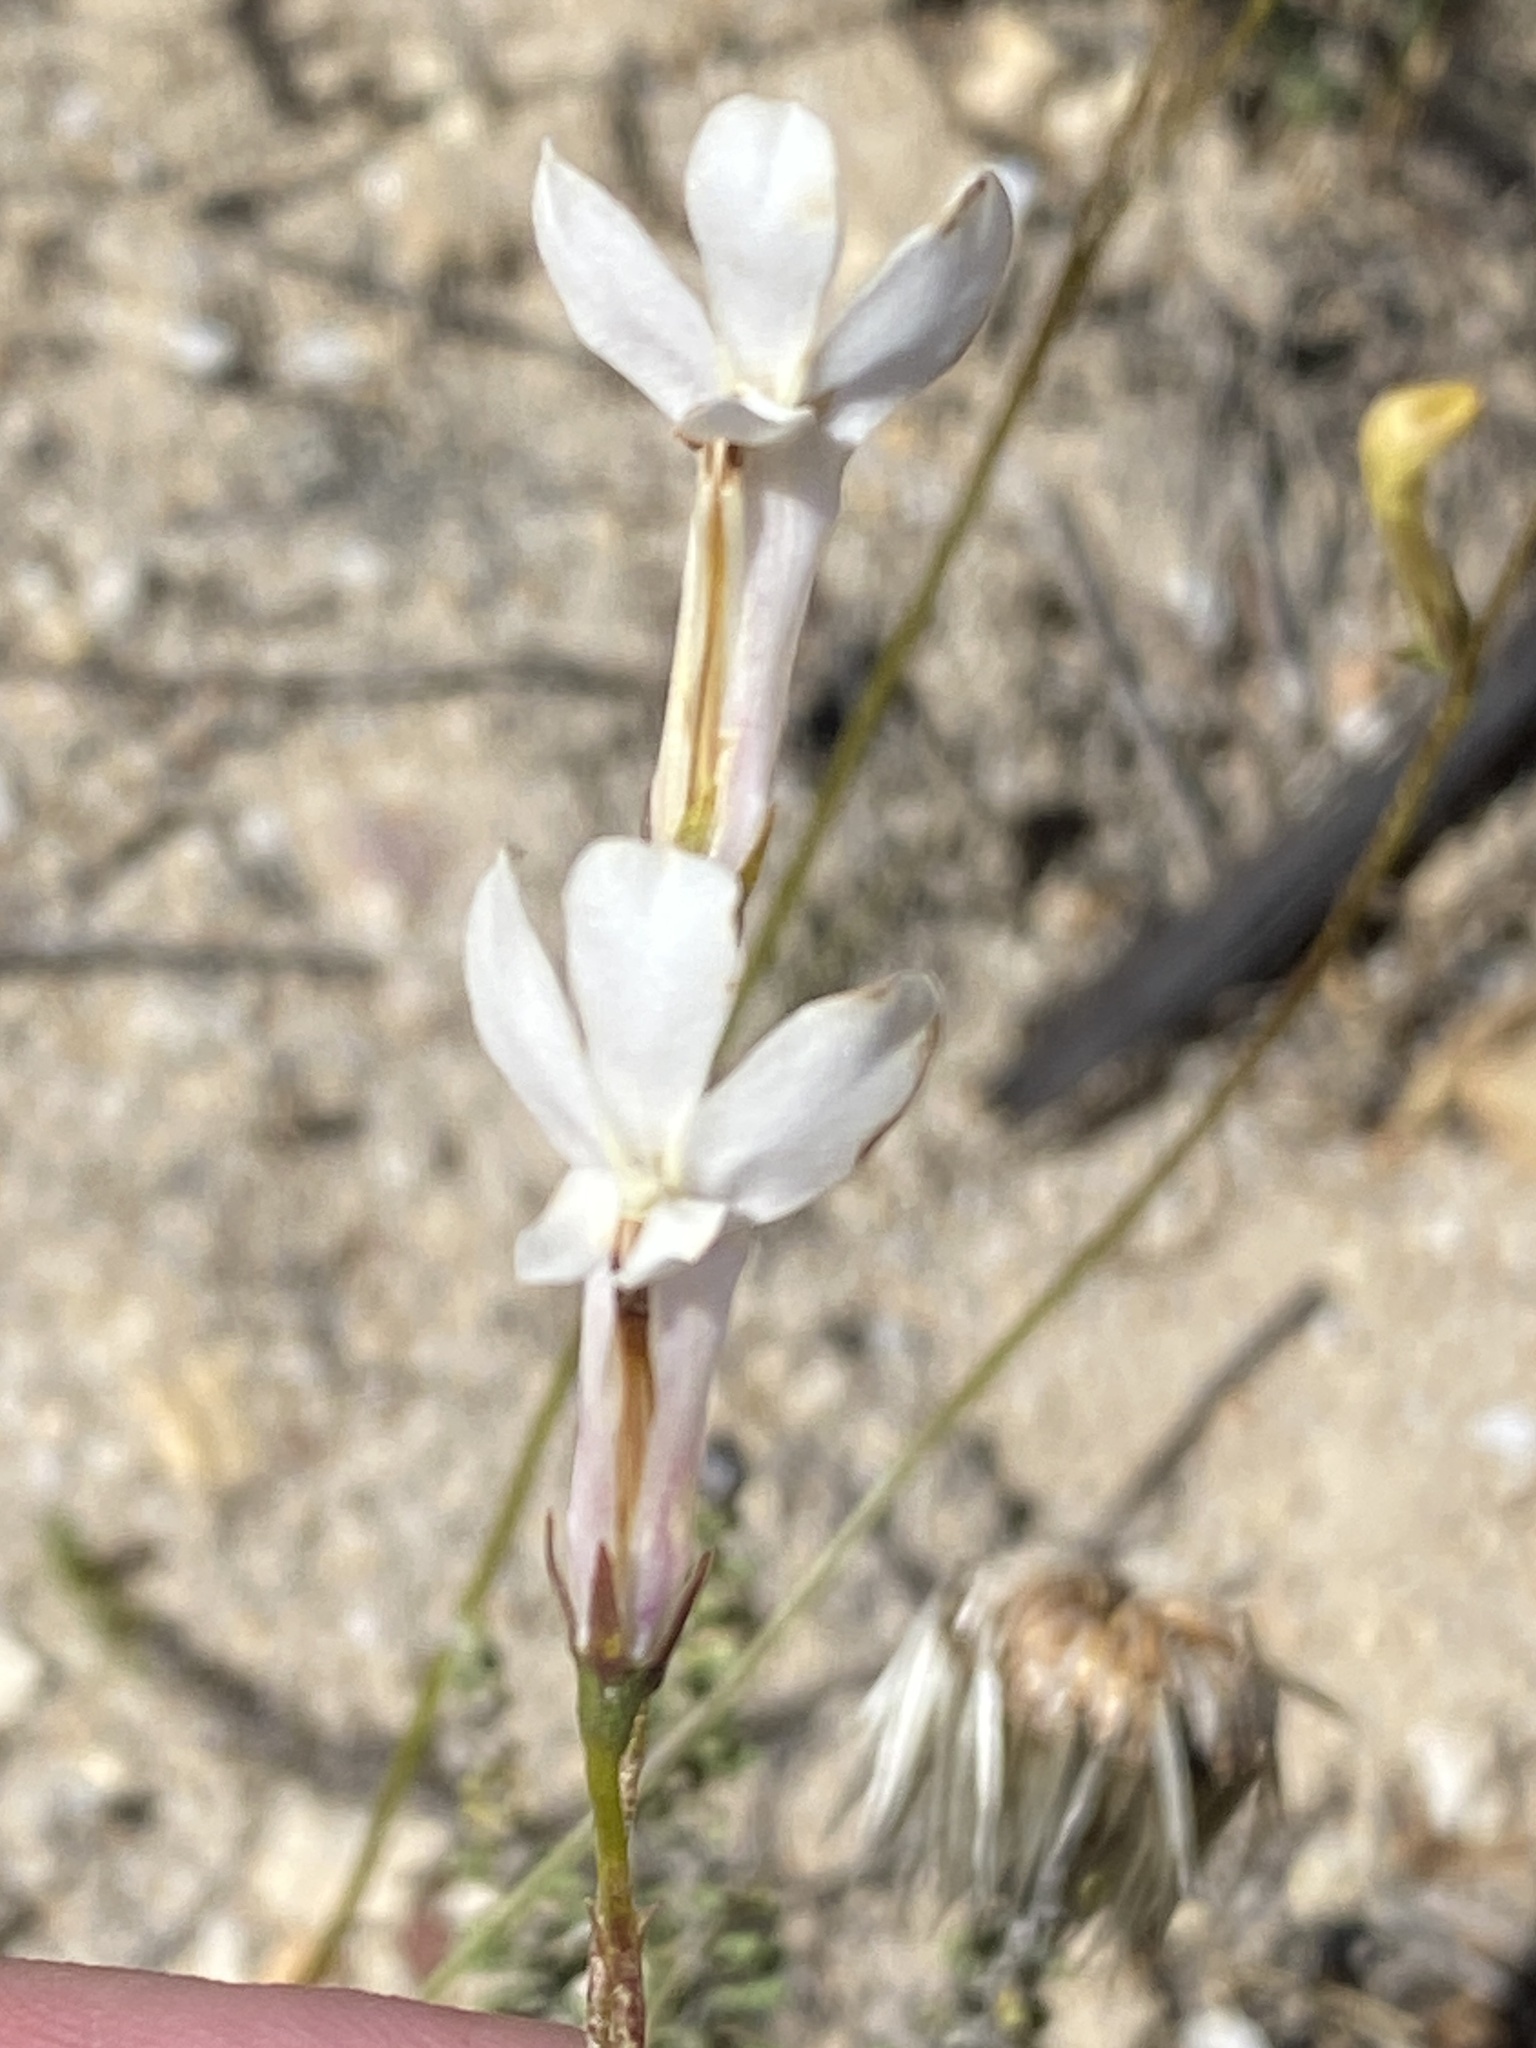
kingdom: Plantae
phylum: Tracheophyta
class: Magnoliopsida
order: Asterales
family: Campanulaceae
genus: Lobelia
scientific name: Lobelia coronopifolia
